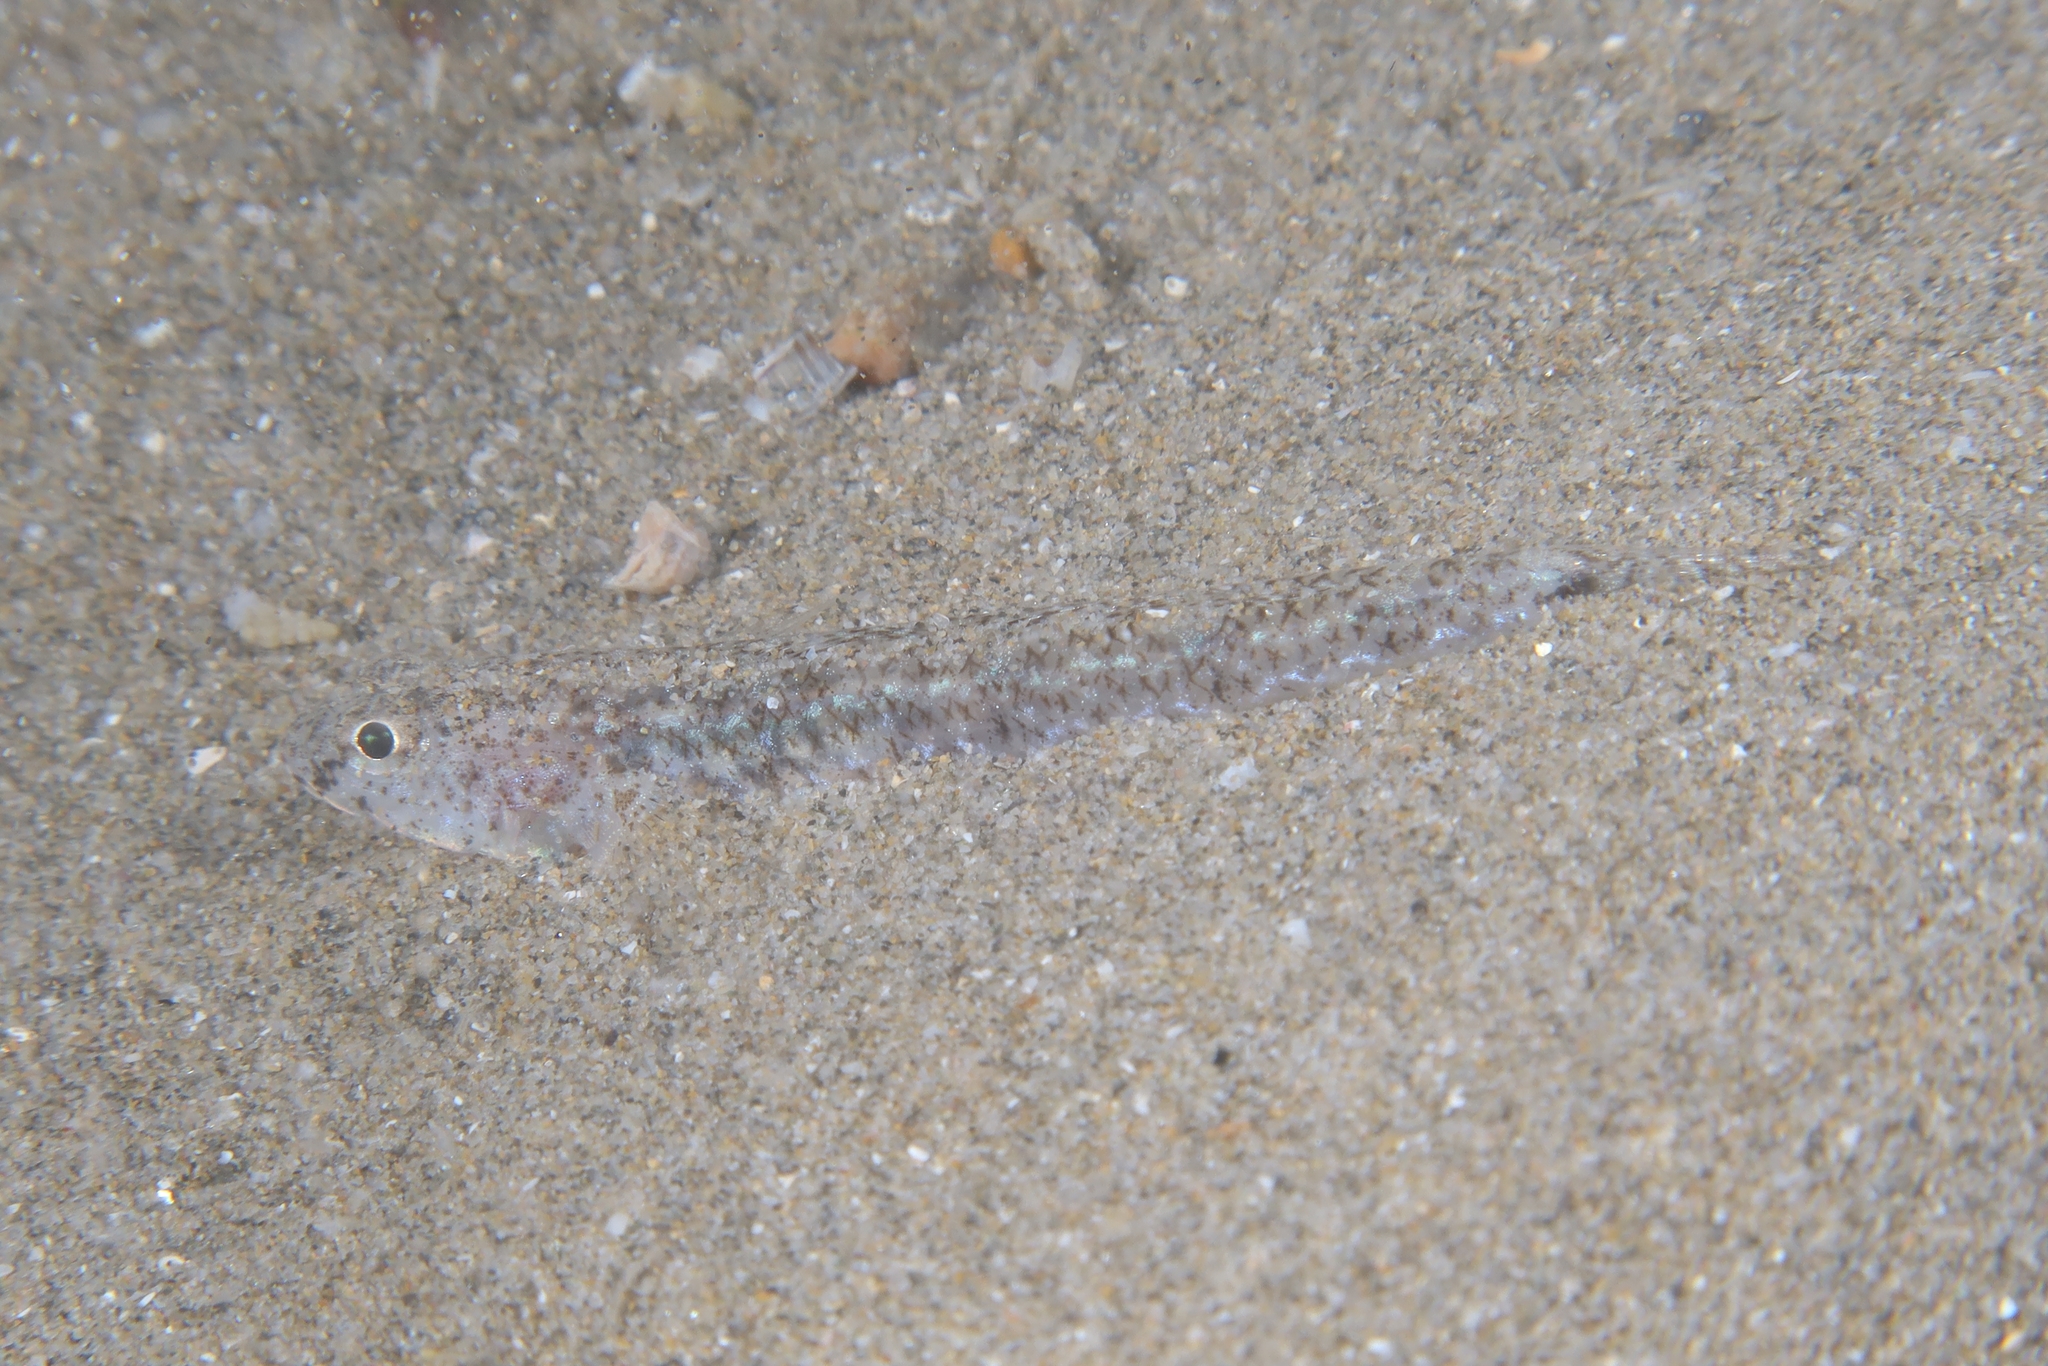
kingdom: Animalia
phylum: Chordata
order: Perciformes
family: Gobiidae
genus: Pomatoschistus
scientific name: Pomatoschistus marmoratus
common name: Marbled goby
